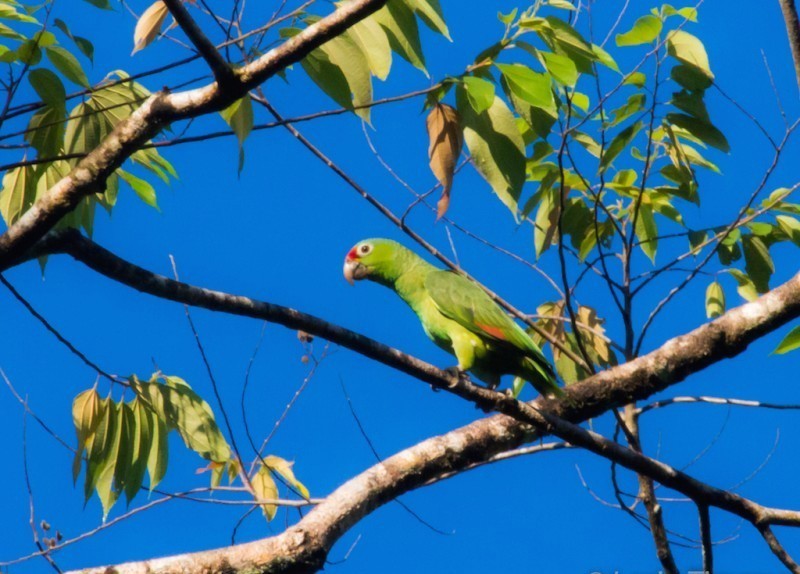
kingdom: Animalia
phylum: Chordata
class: Aves
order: Psittaciformes
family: Psittacidae
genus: Amazona
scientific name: Amazona autumnalis
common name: Red-lored amazon
